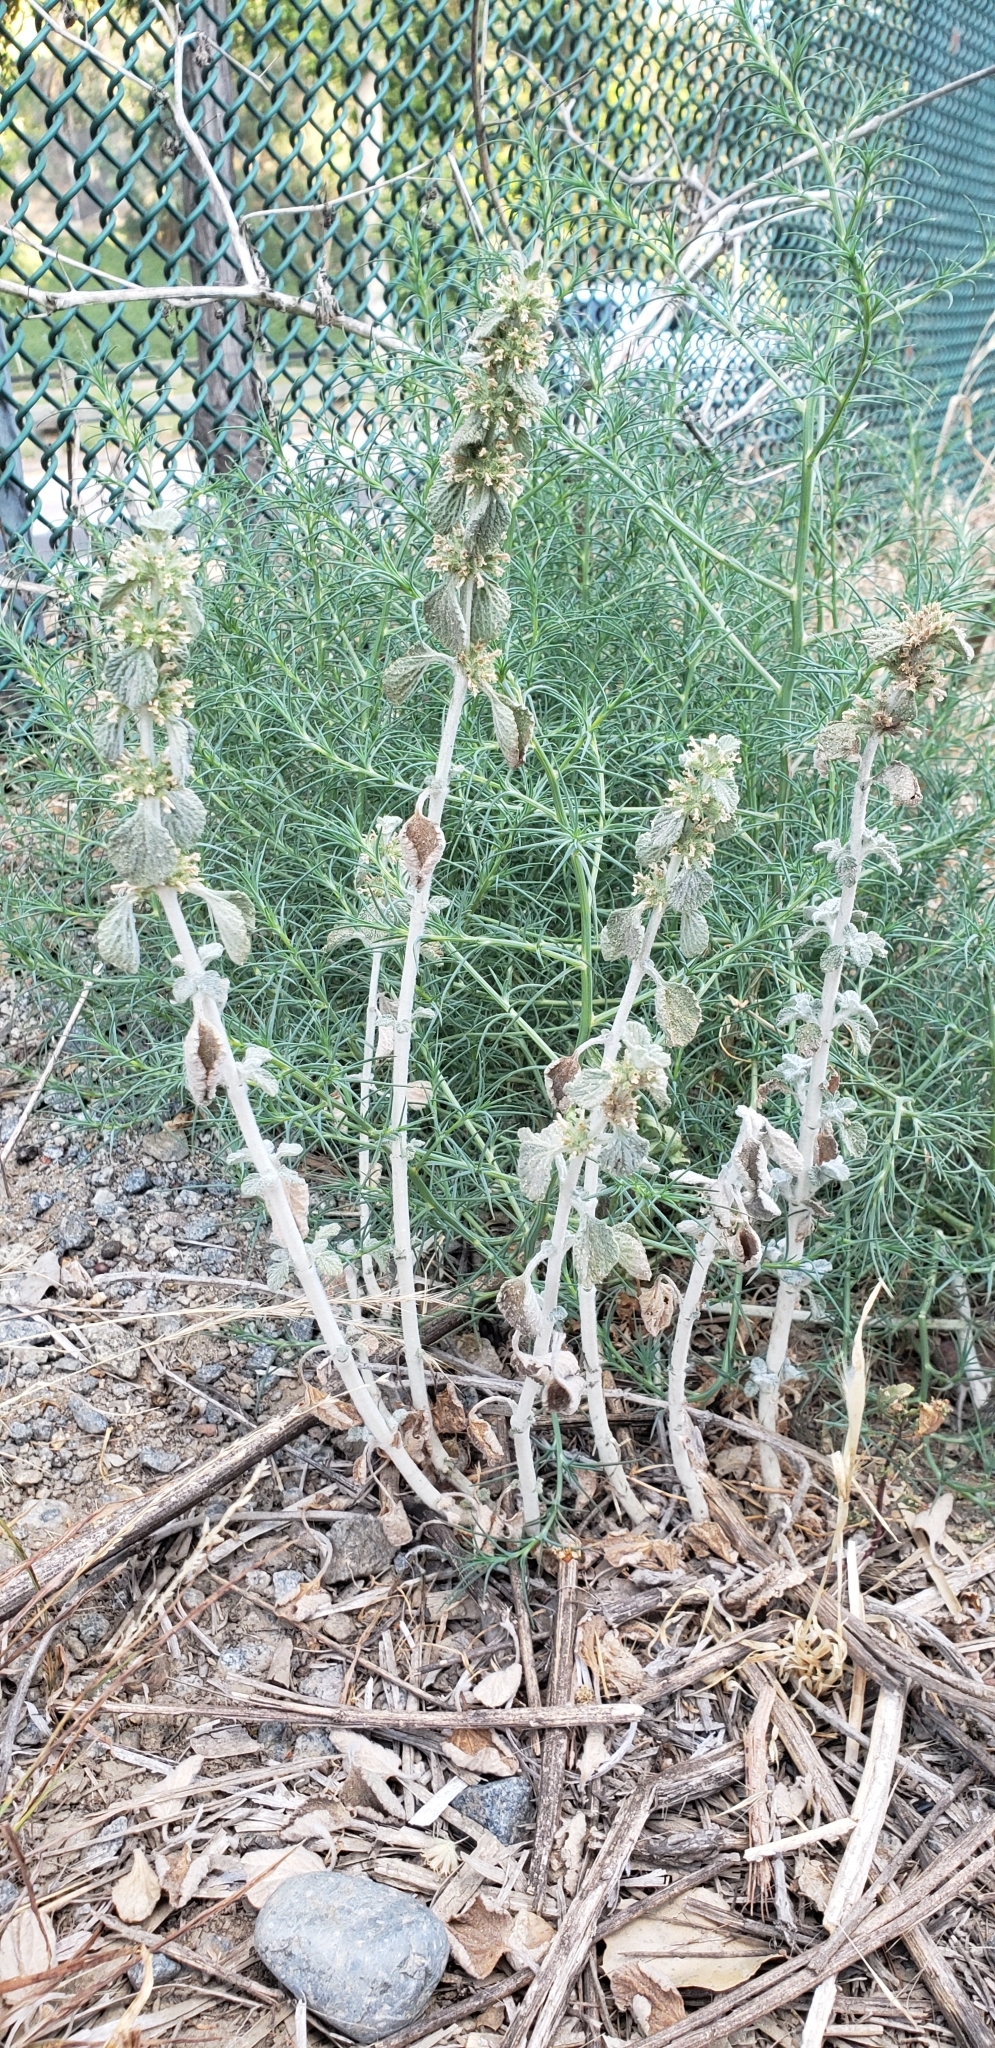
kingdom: Plantae
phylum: Tracheophyta
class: Magnoliopsida
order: Lamiales
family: Lamiaceae
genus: Marrubium
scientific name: Marrubium vulgare
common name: Horehound
